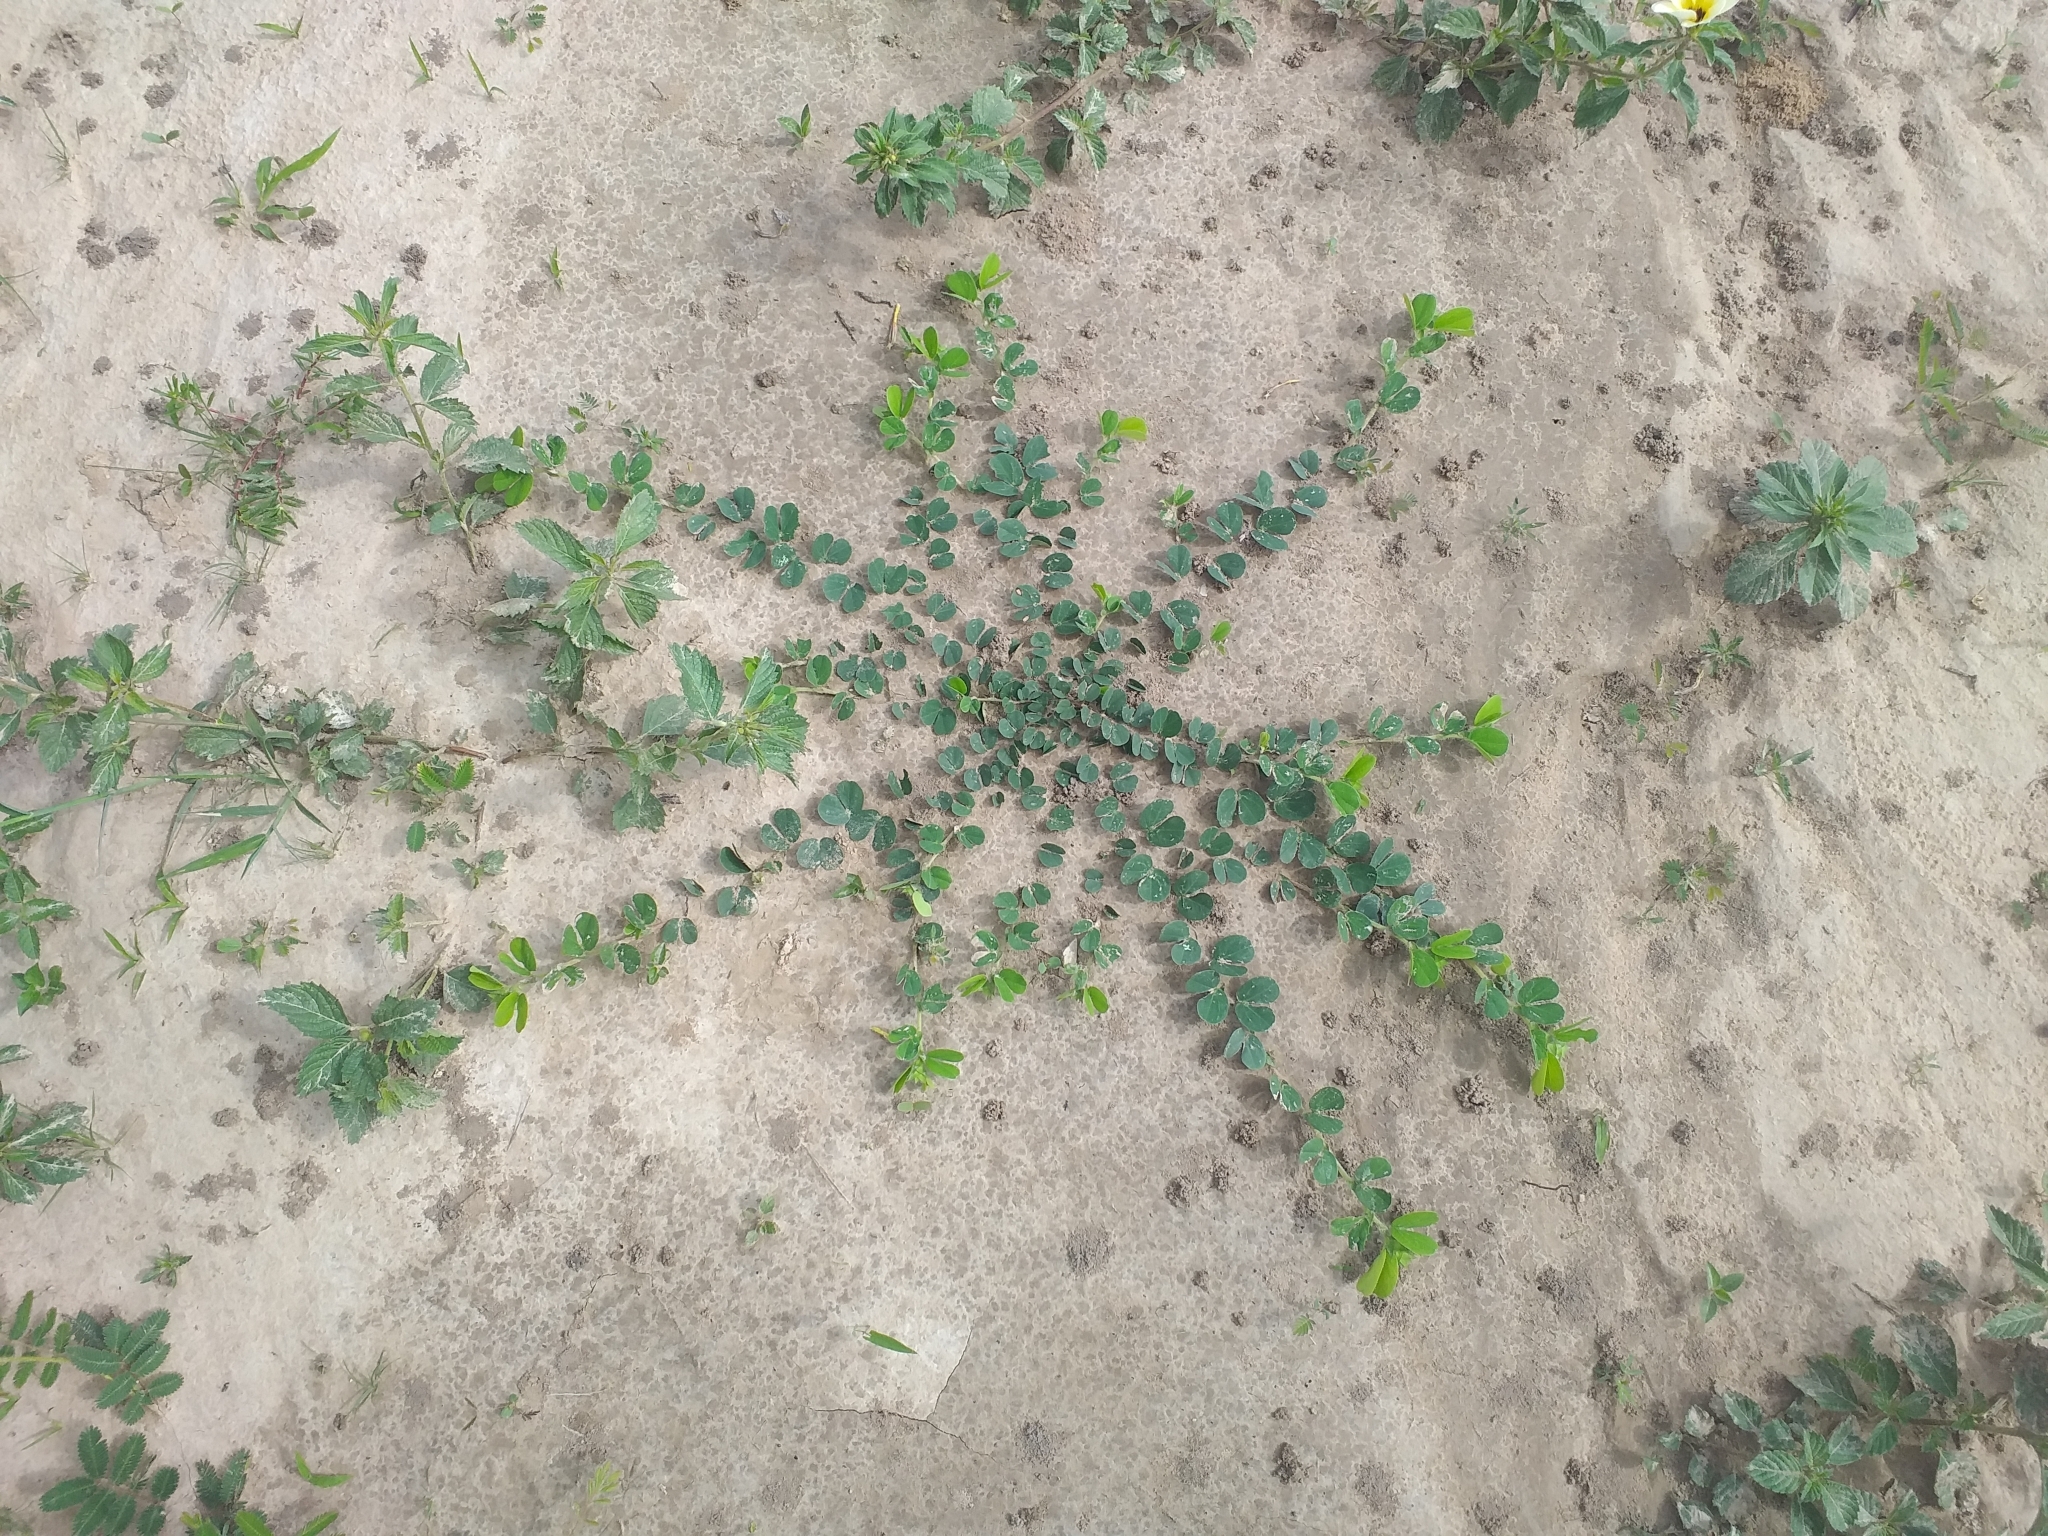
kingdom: Plantae
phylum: Tracheophyta
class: Magnoliopsida
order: Fabales
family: Fabaceae
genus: Chamaecrista
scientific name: Chamaecrista rotundifolia
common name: Round-leaf cassia
